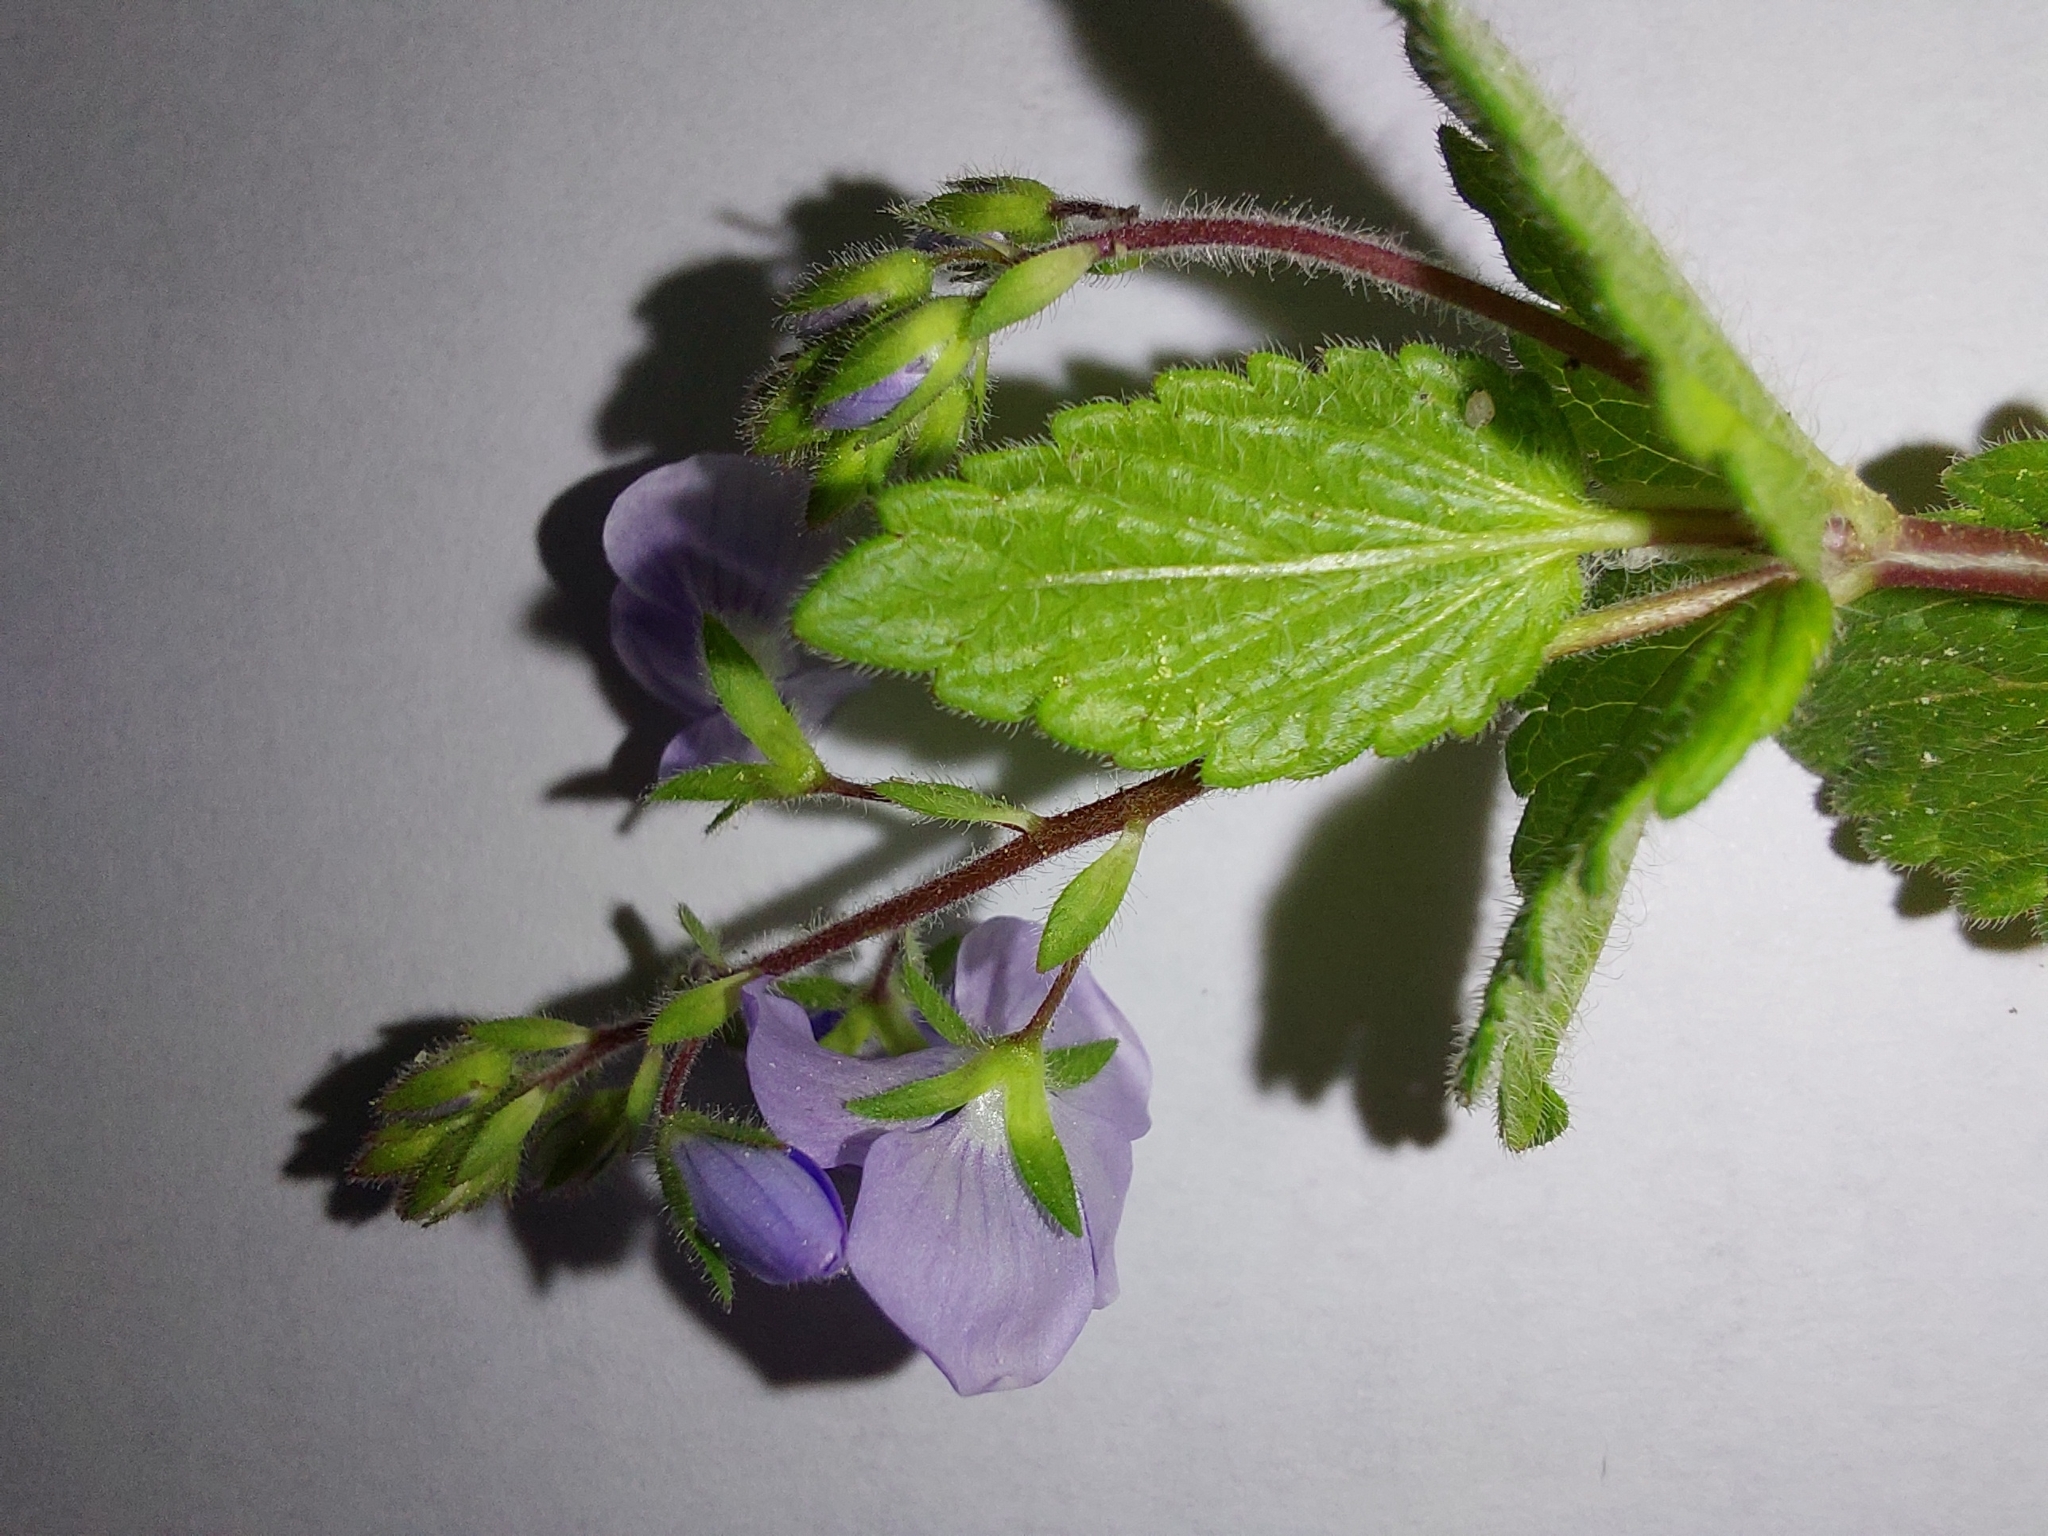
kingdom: Plantae
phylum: Tracheophyta
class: Magnoliopsida
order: Lamiales
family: Plantaginaceae
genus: Veronica
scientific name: Veronica chamaedrys
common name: Germander speedwell
